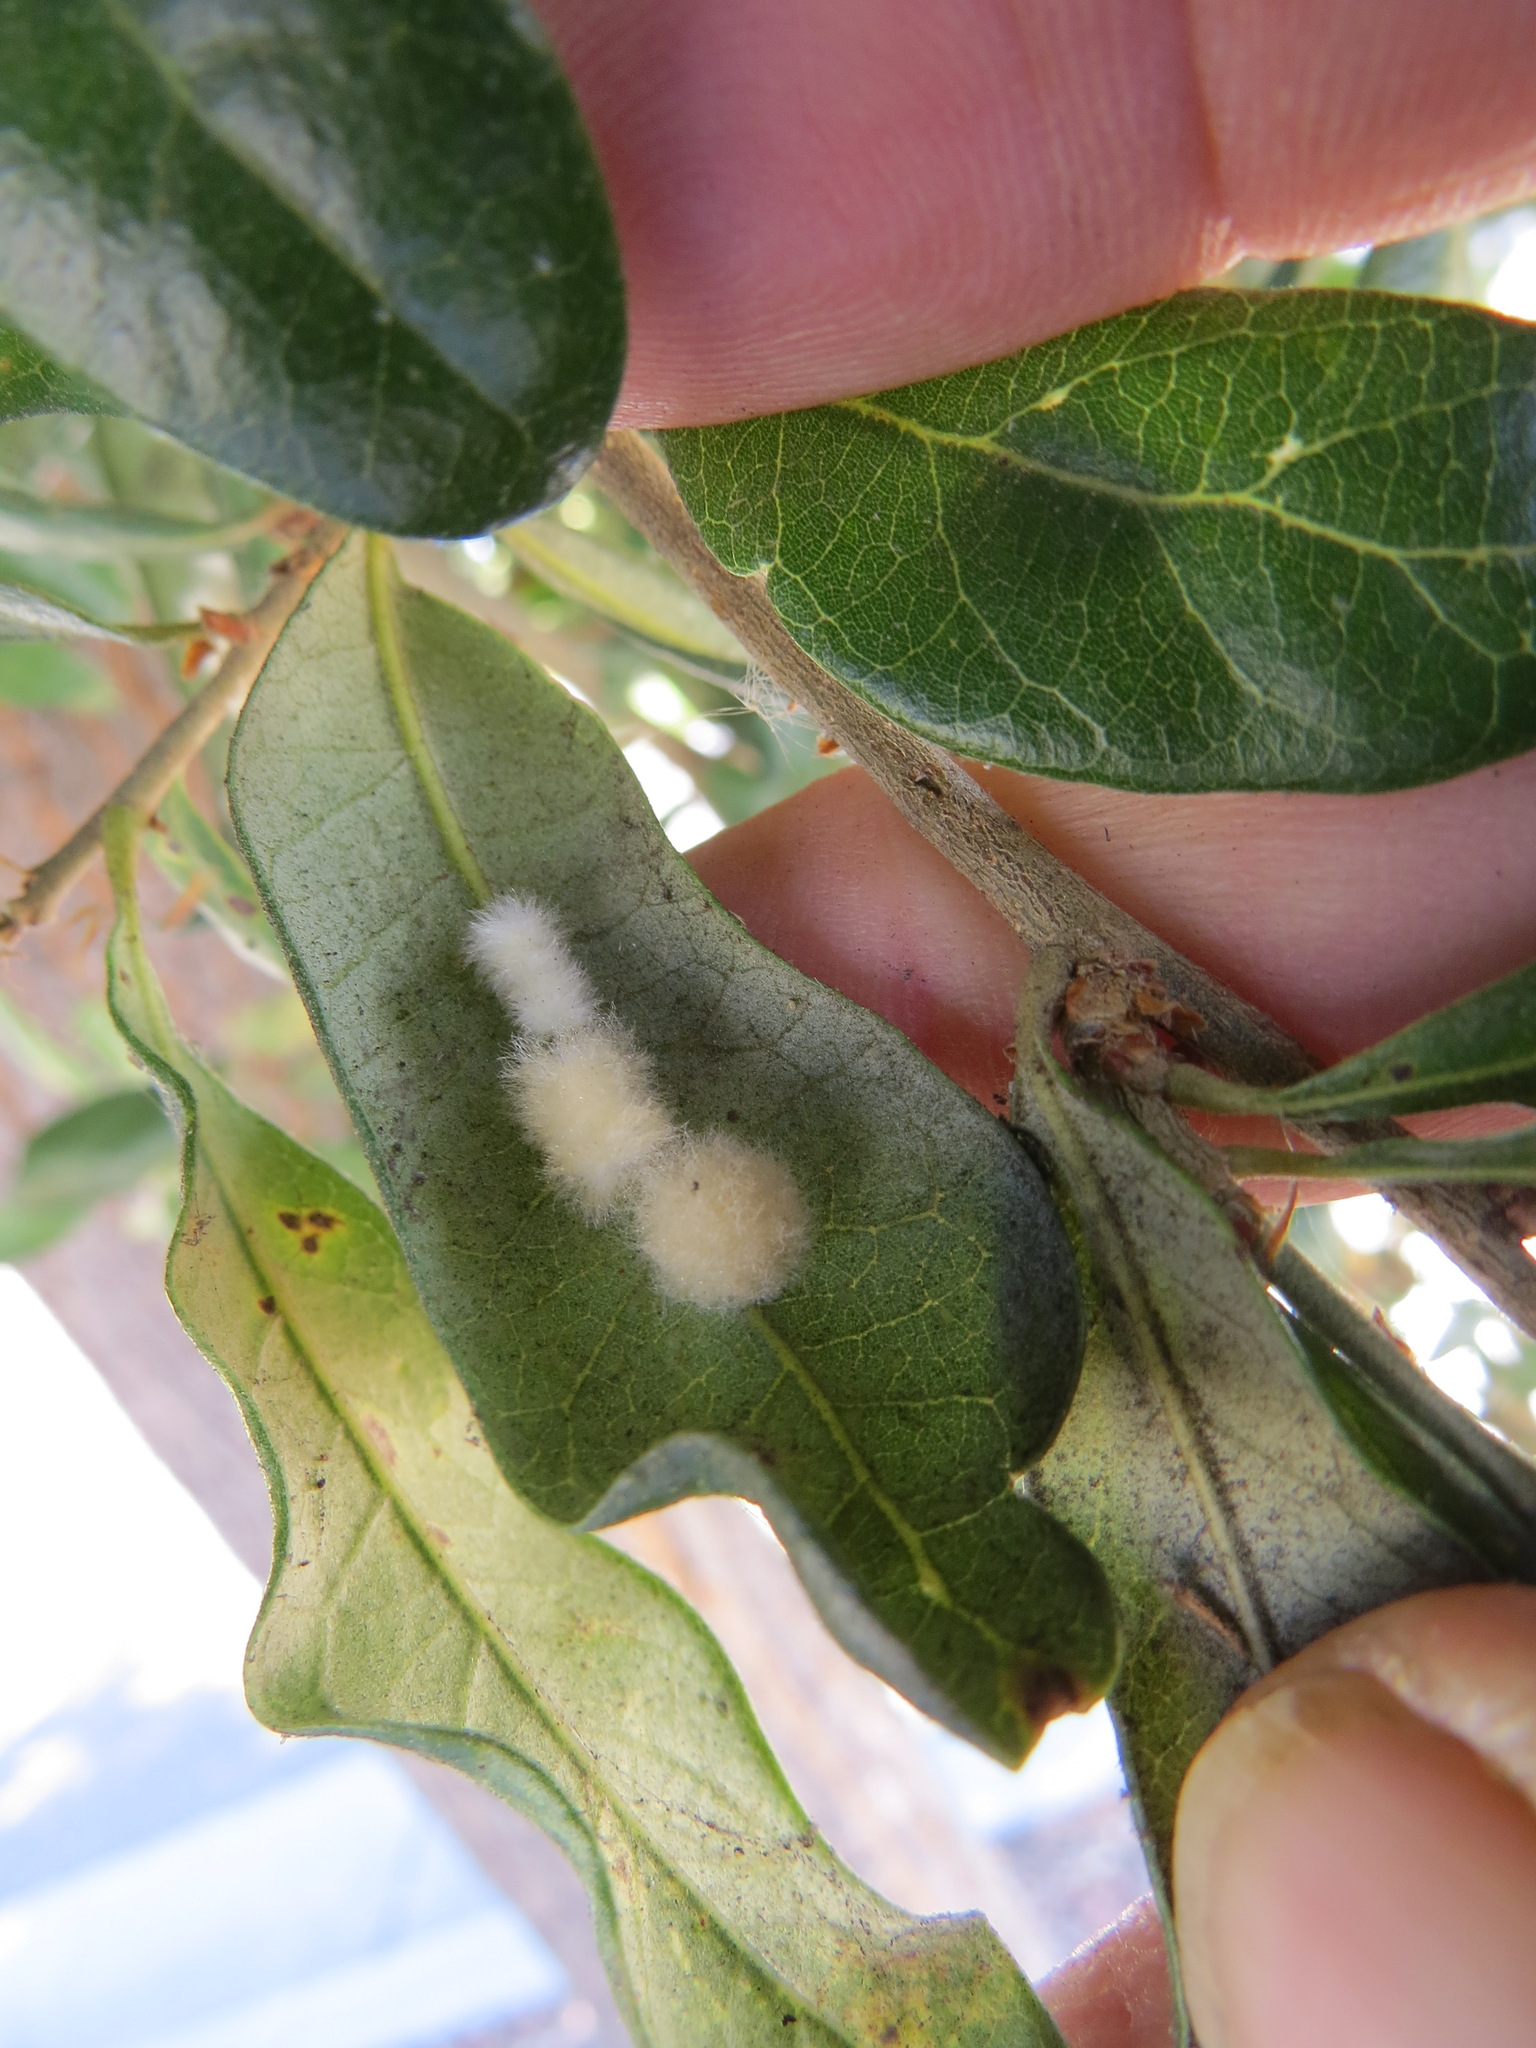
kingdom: Animalia
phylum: Arthropoda
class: Insecta
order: Hymenoptera
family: Cynipidae
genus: Andricus
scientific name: Andricus Druon quercuslanigerum
